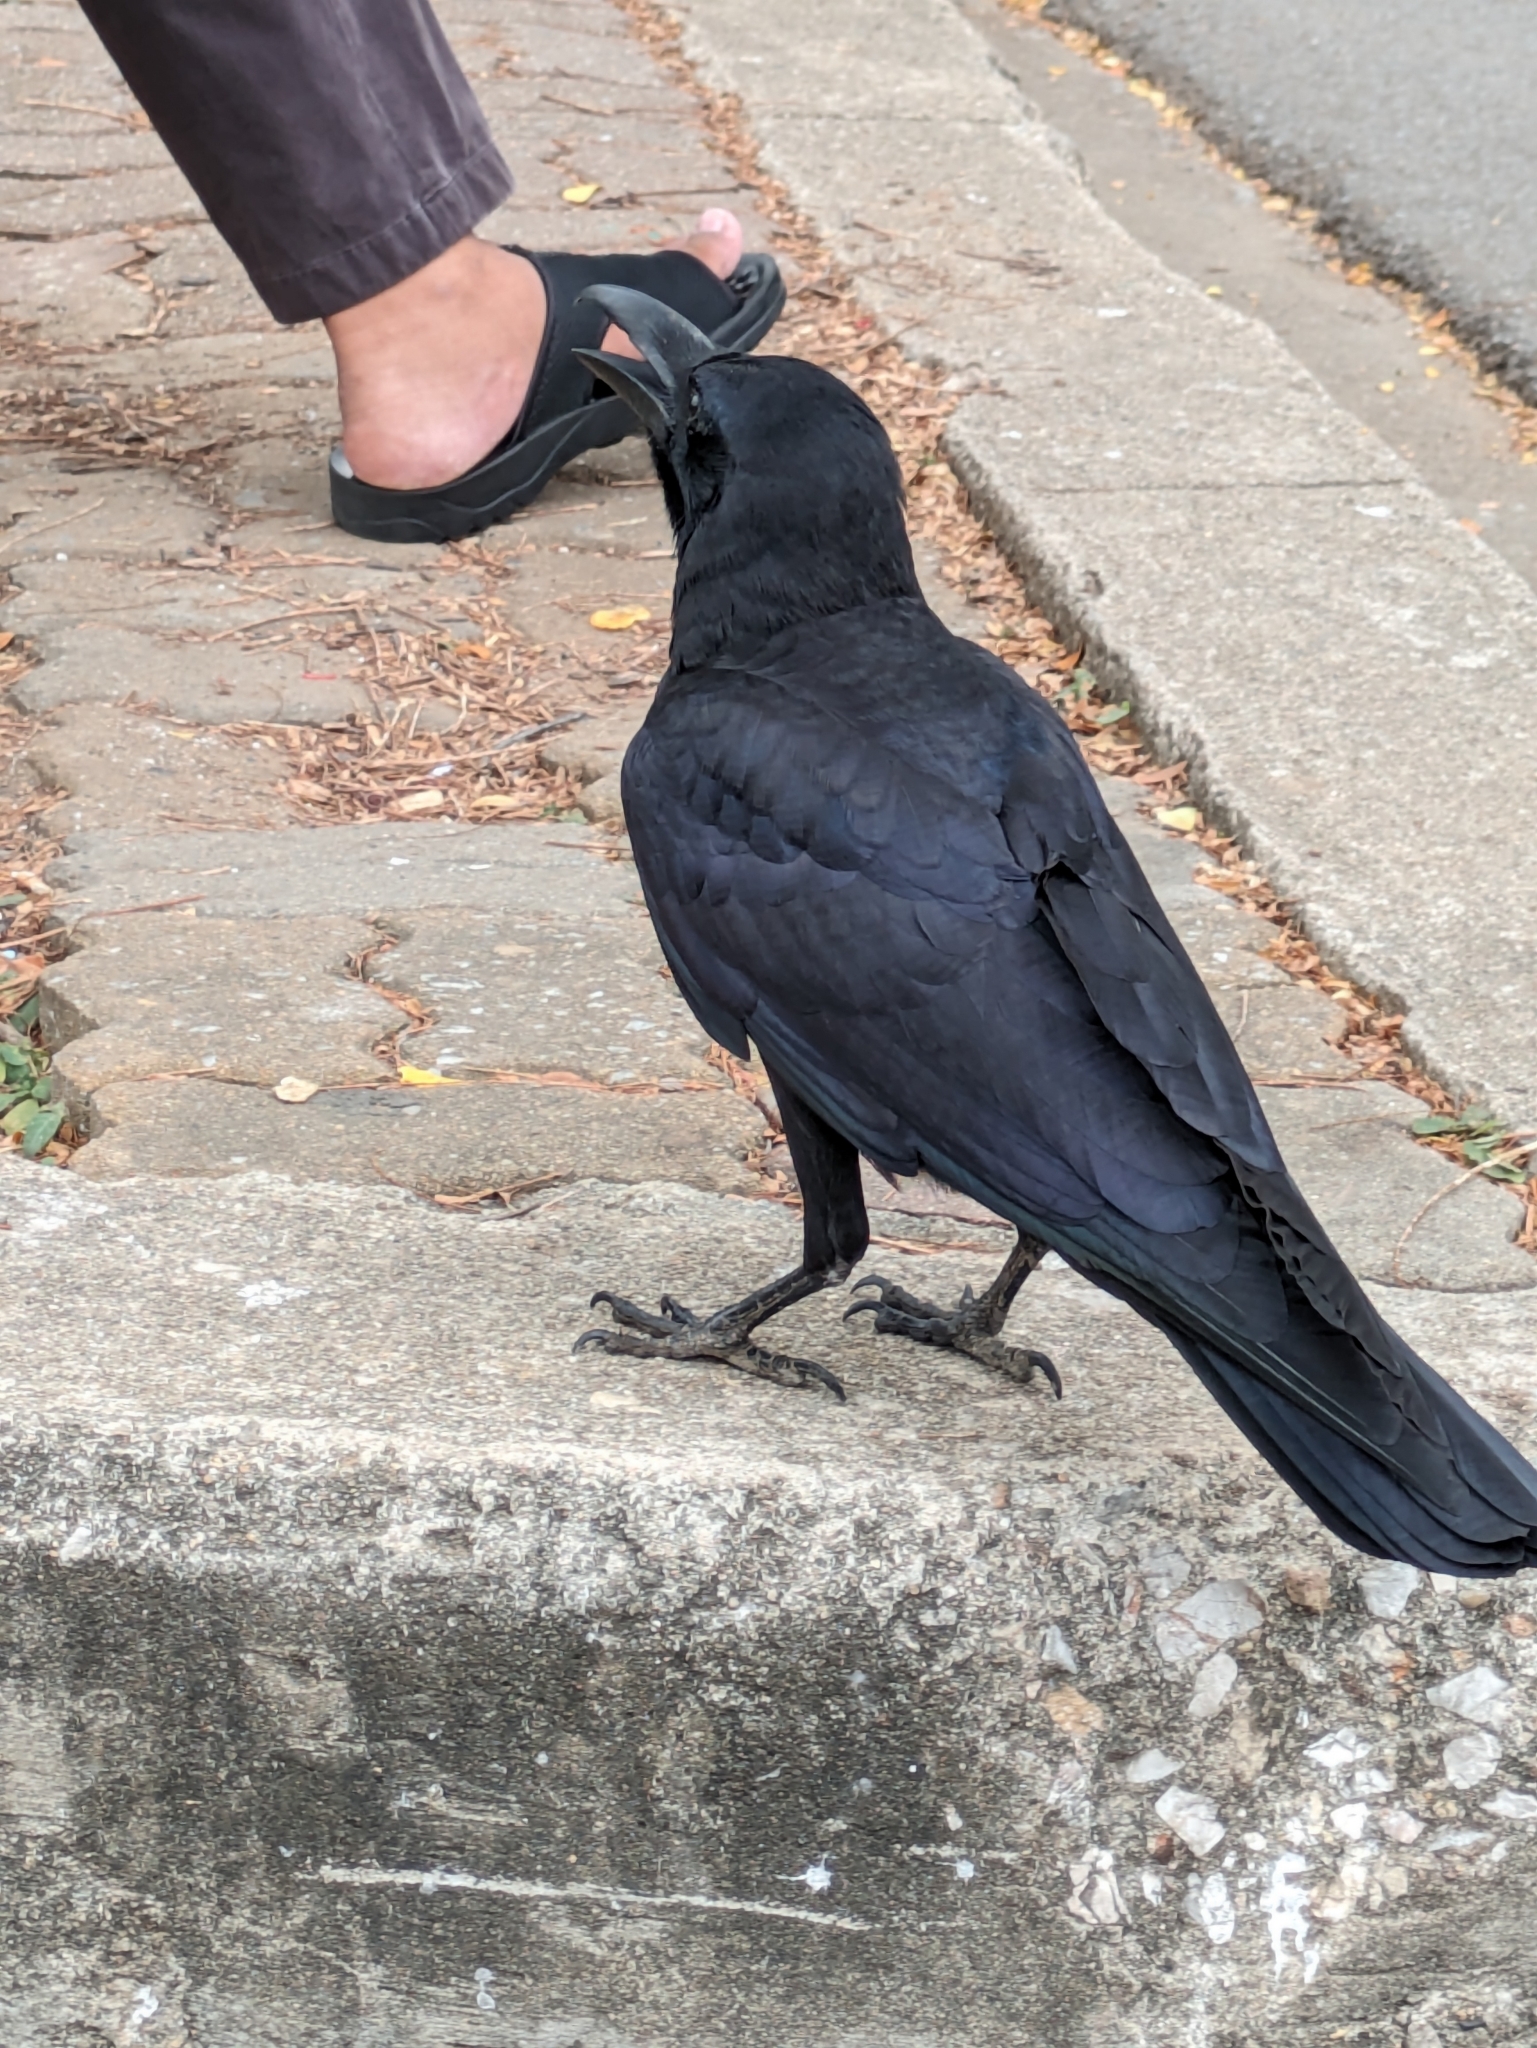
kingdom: Animalia
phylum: Chordata
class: Aves
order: Passeriformes
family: Corvidae
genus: Corvus
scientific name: Corvus macrorhynchos
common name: Large-billed crow
